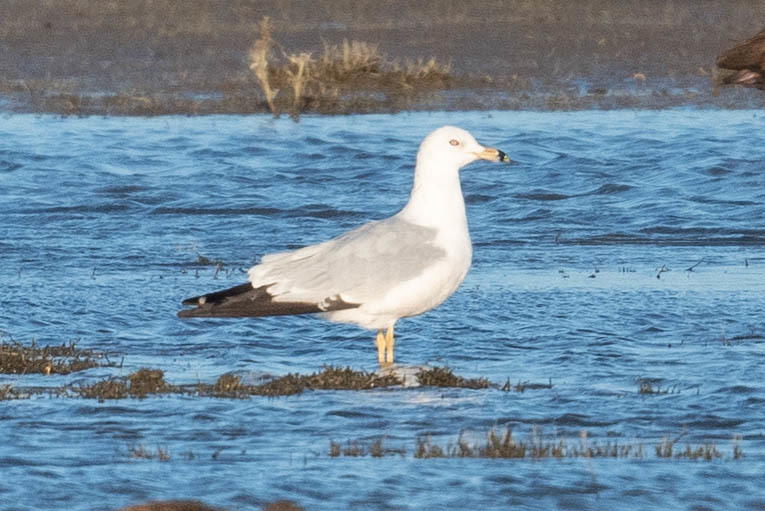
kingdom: Animalia
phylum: Chordata
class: Aves
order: Charadriiformes
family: Laridae
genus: Larus
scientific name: Larus delawarensis
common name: Ring-billed gull
